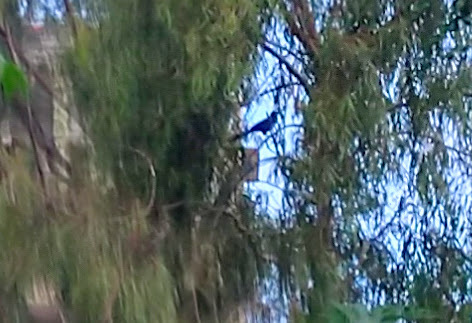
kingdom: Animalia
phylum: Chordata
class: Aves
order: Cuculiformes
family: Cuculidae
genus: Centropus
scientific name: Centropus sinensis
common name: Greater coucal
